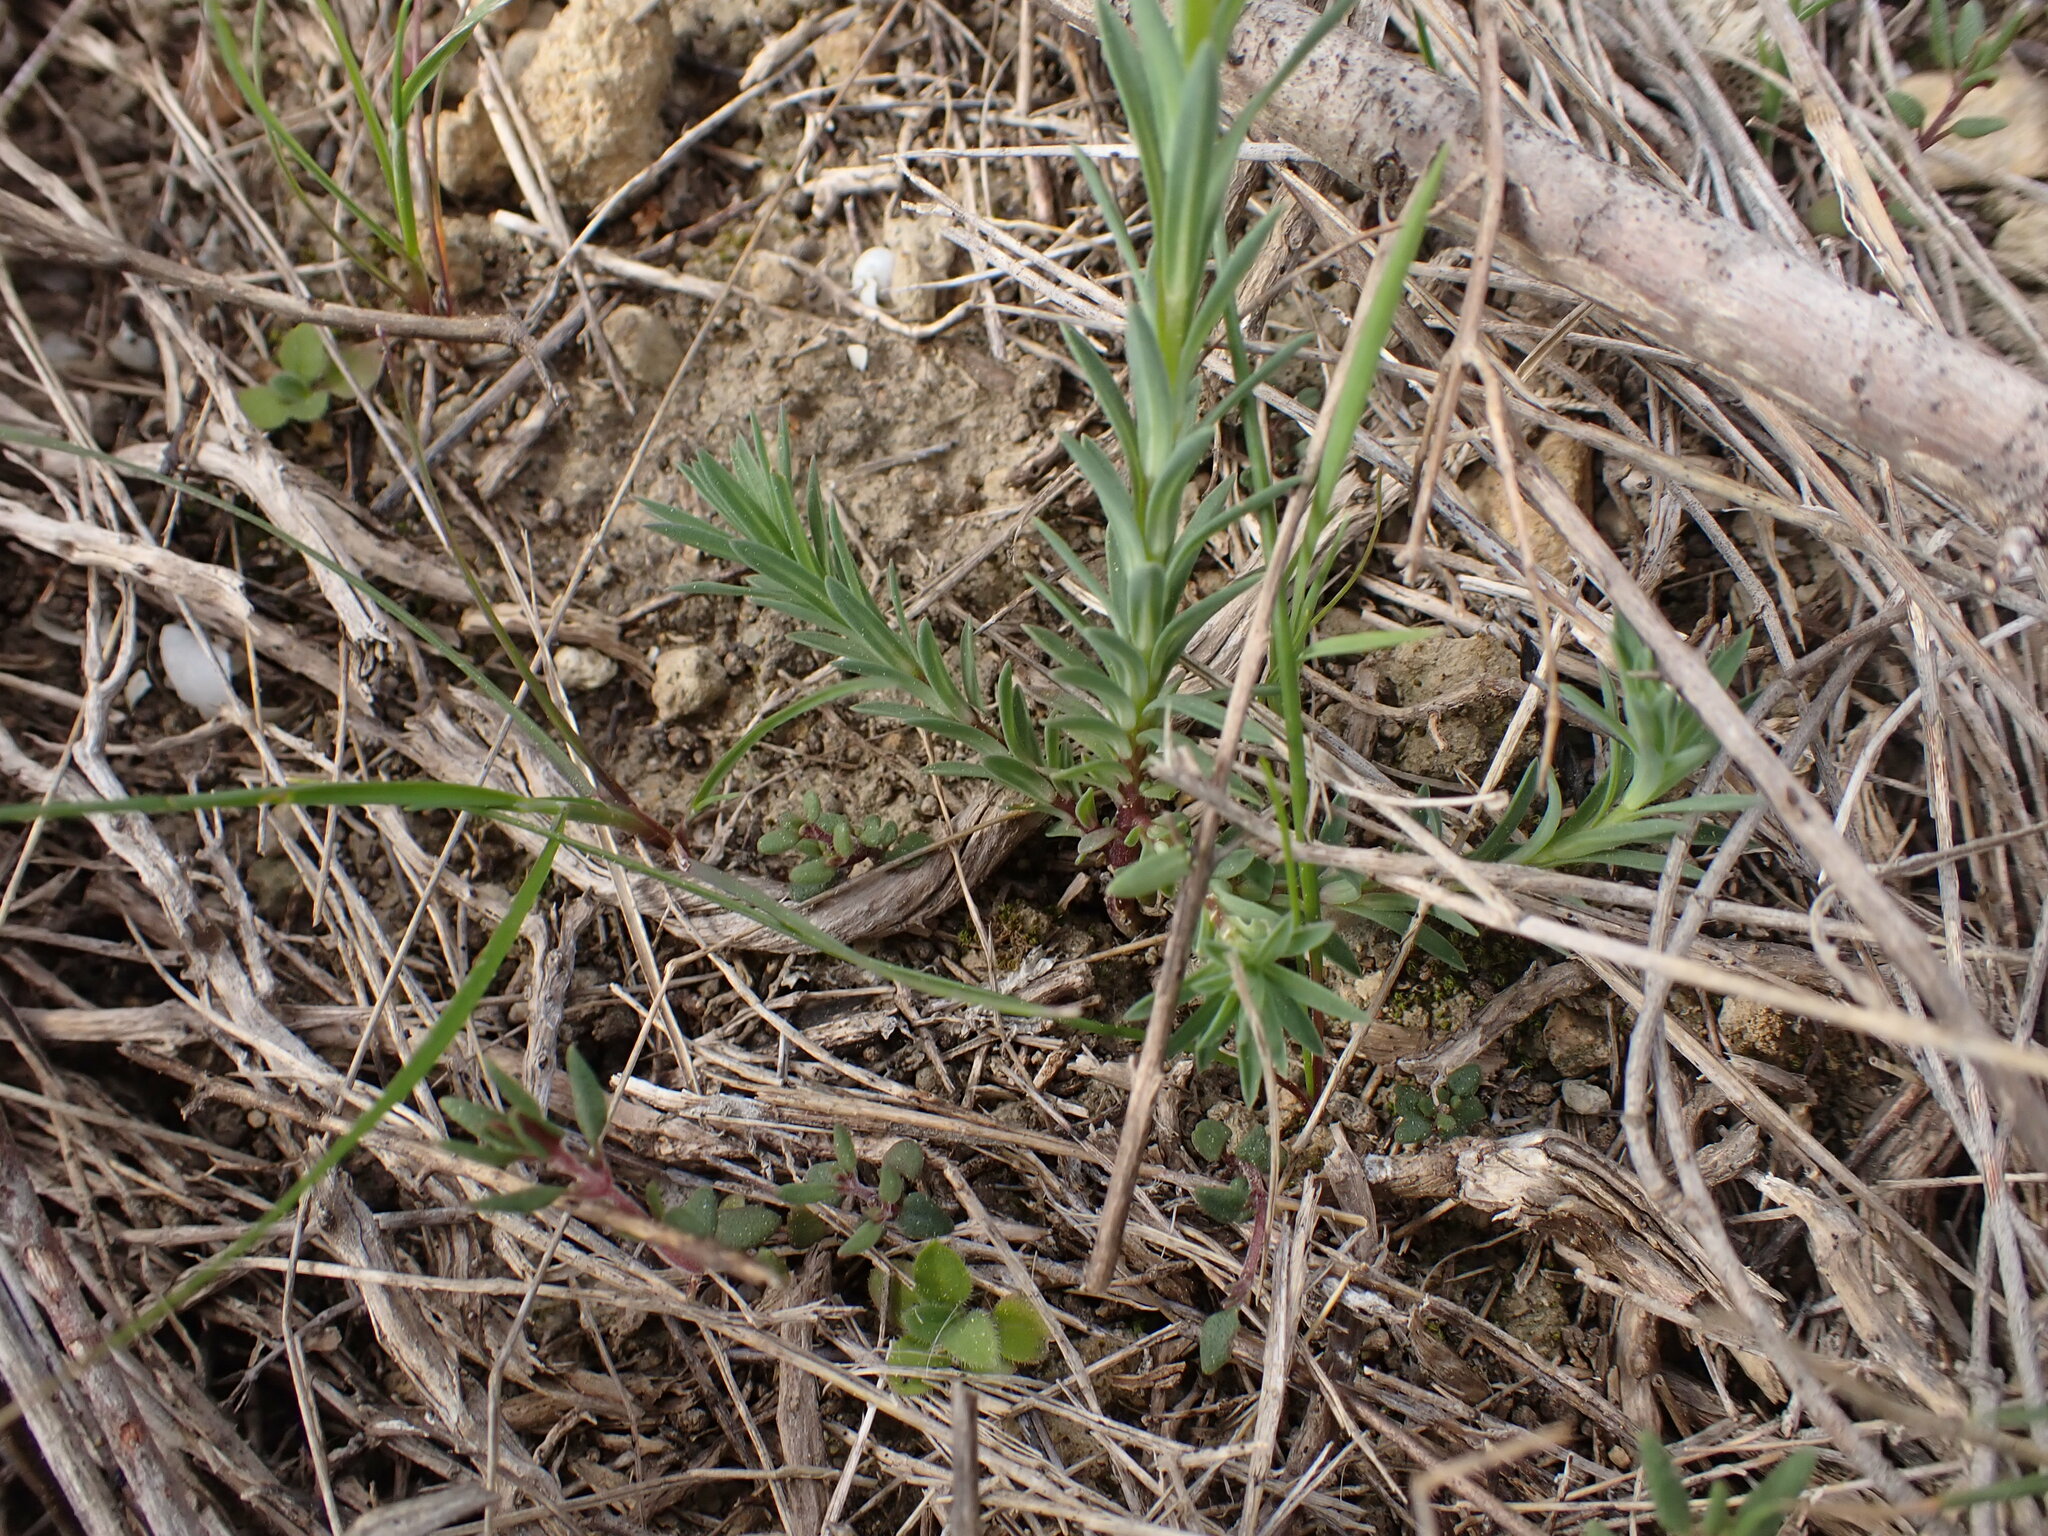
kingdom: Plantae
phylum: Tracheophyta
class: Magnoliopsida
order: Malpighiales
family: Linaceae
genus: Linum
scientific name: Linum strictum
